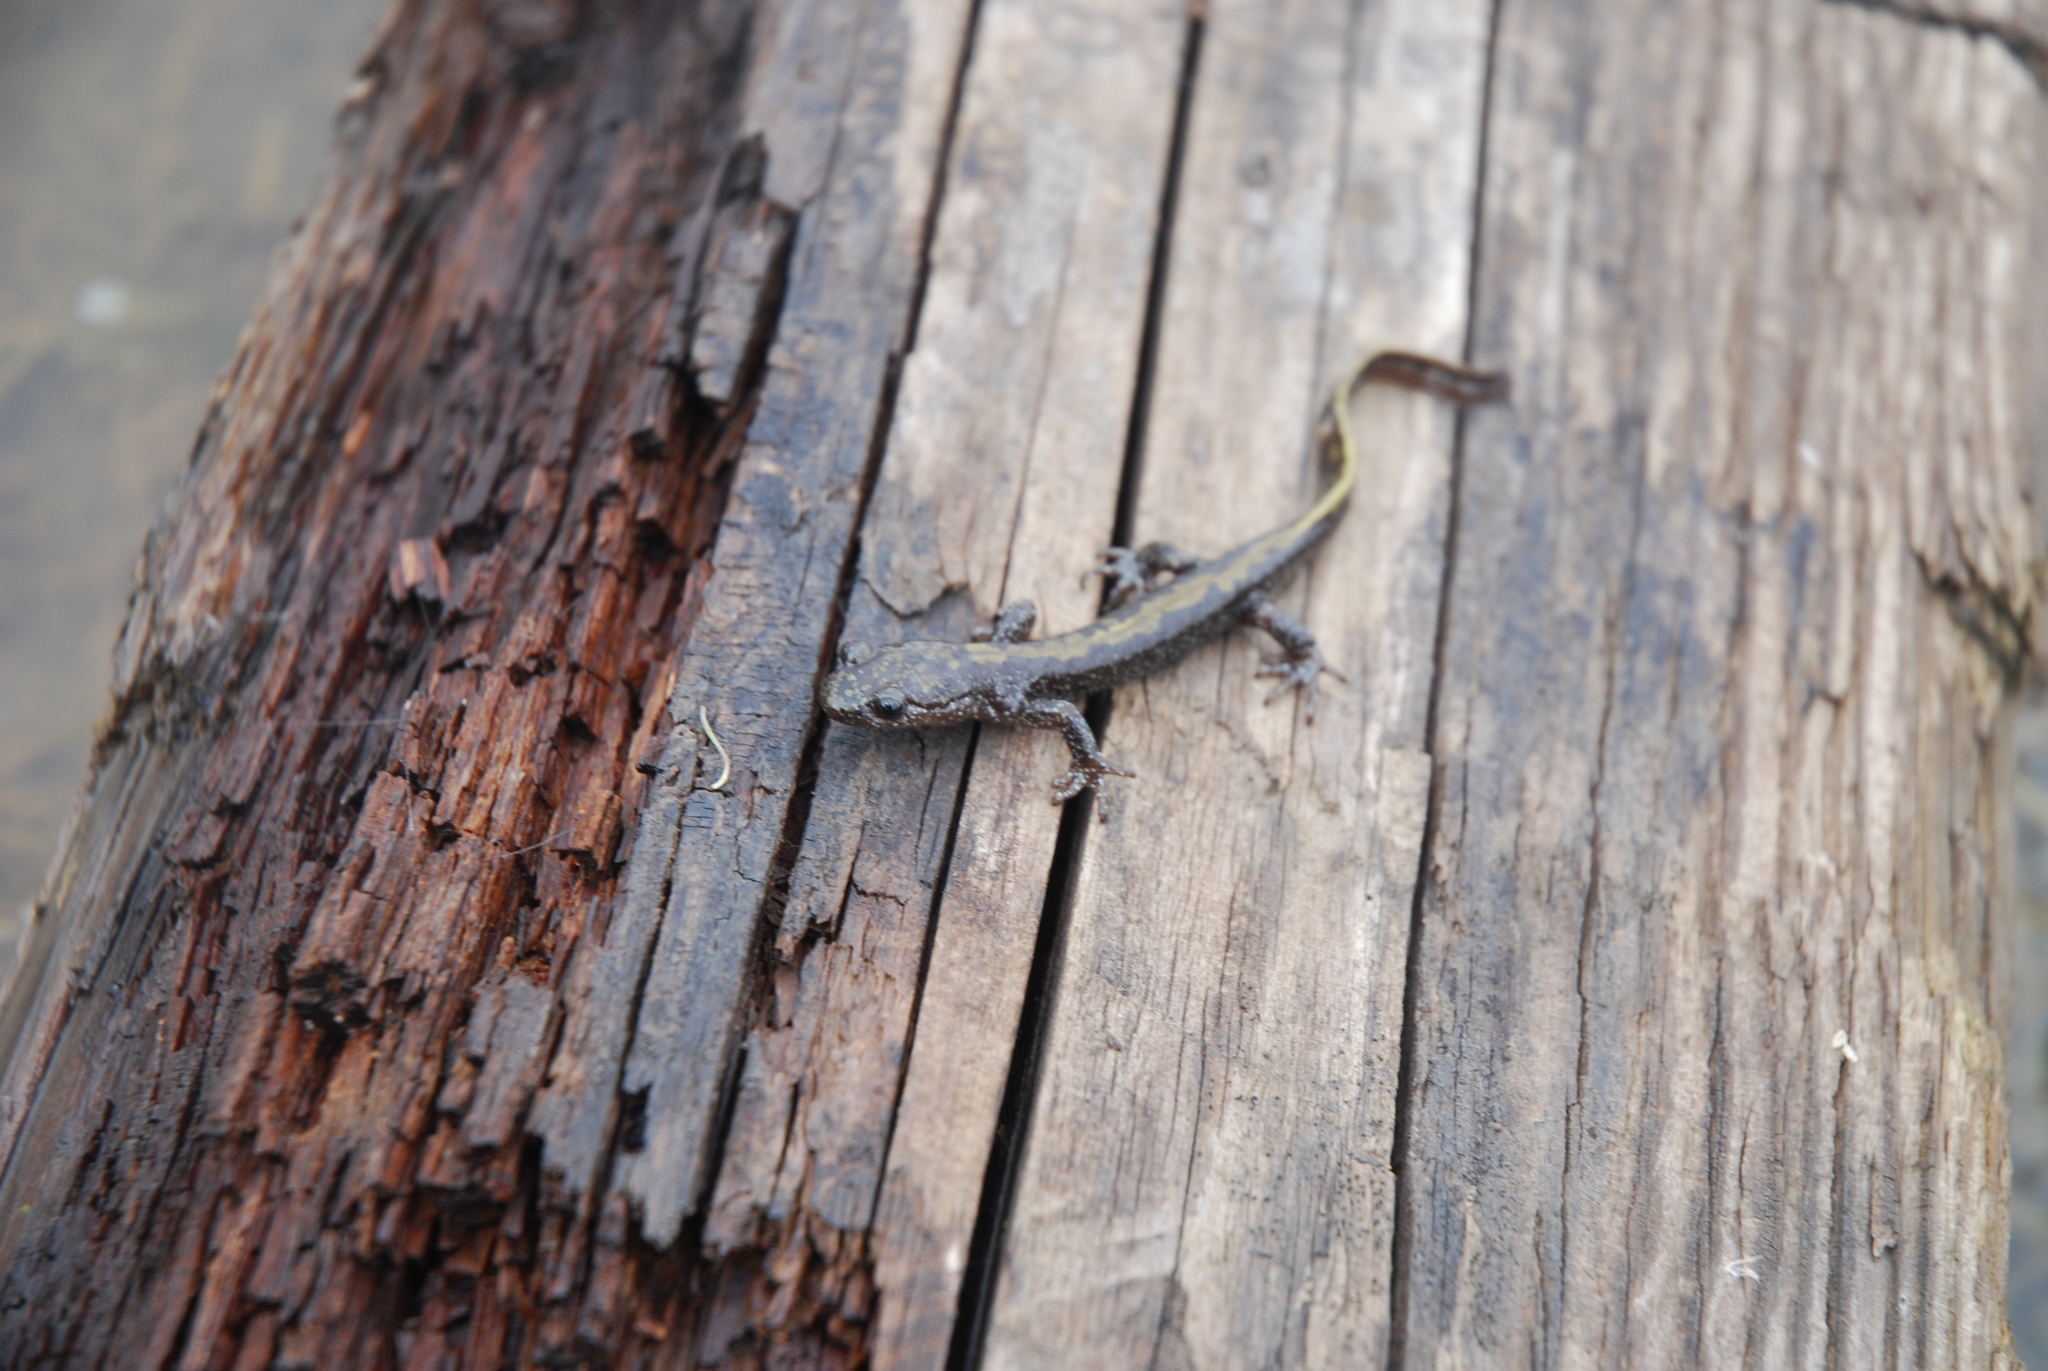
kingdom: Animalia
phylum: Chordata
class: Amphibia
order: Caudata
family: Ambystomatidae
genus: Ambystoma
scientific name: Ambystoma macrodactylum
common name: Long-toed salamander
